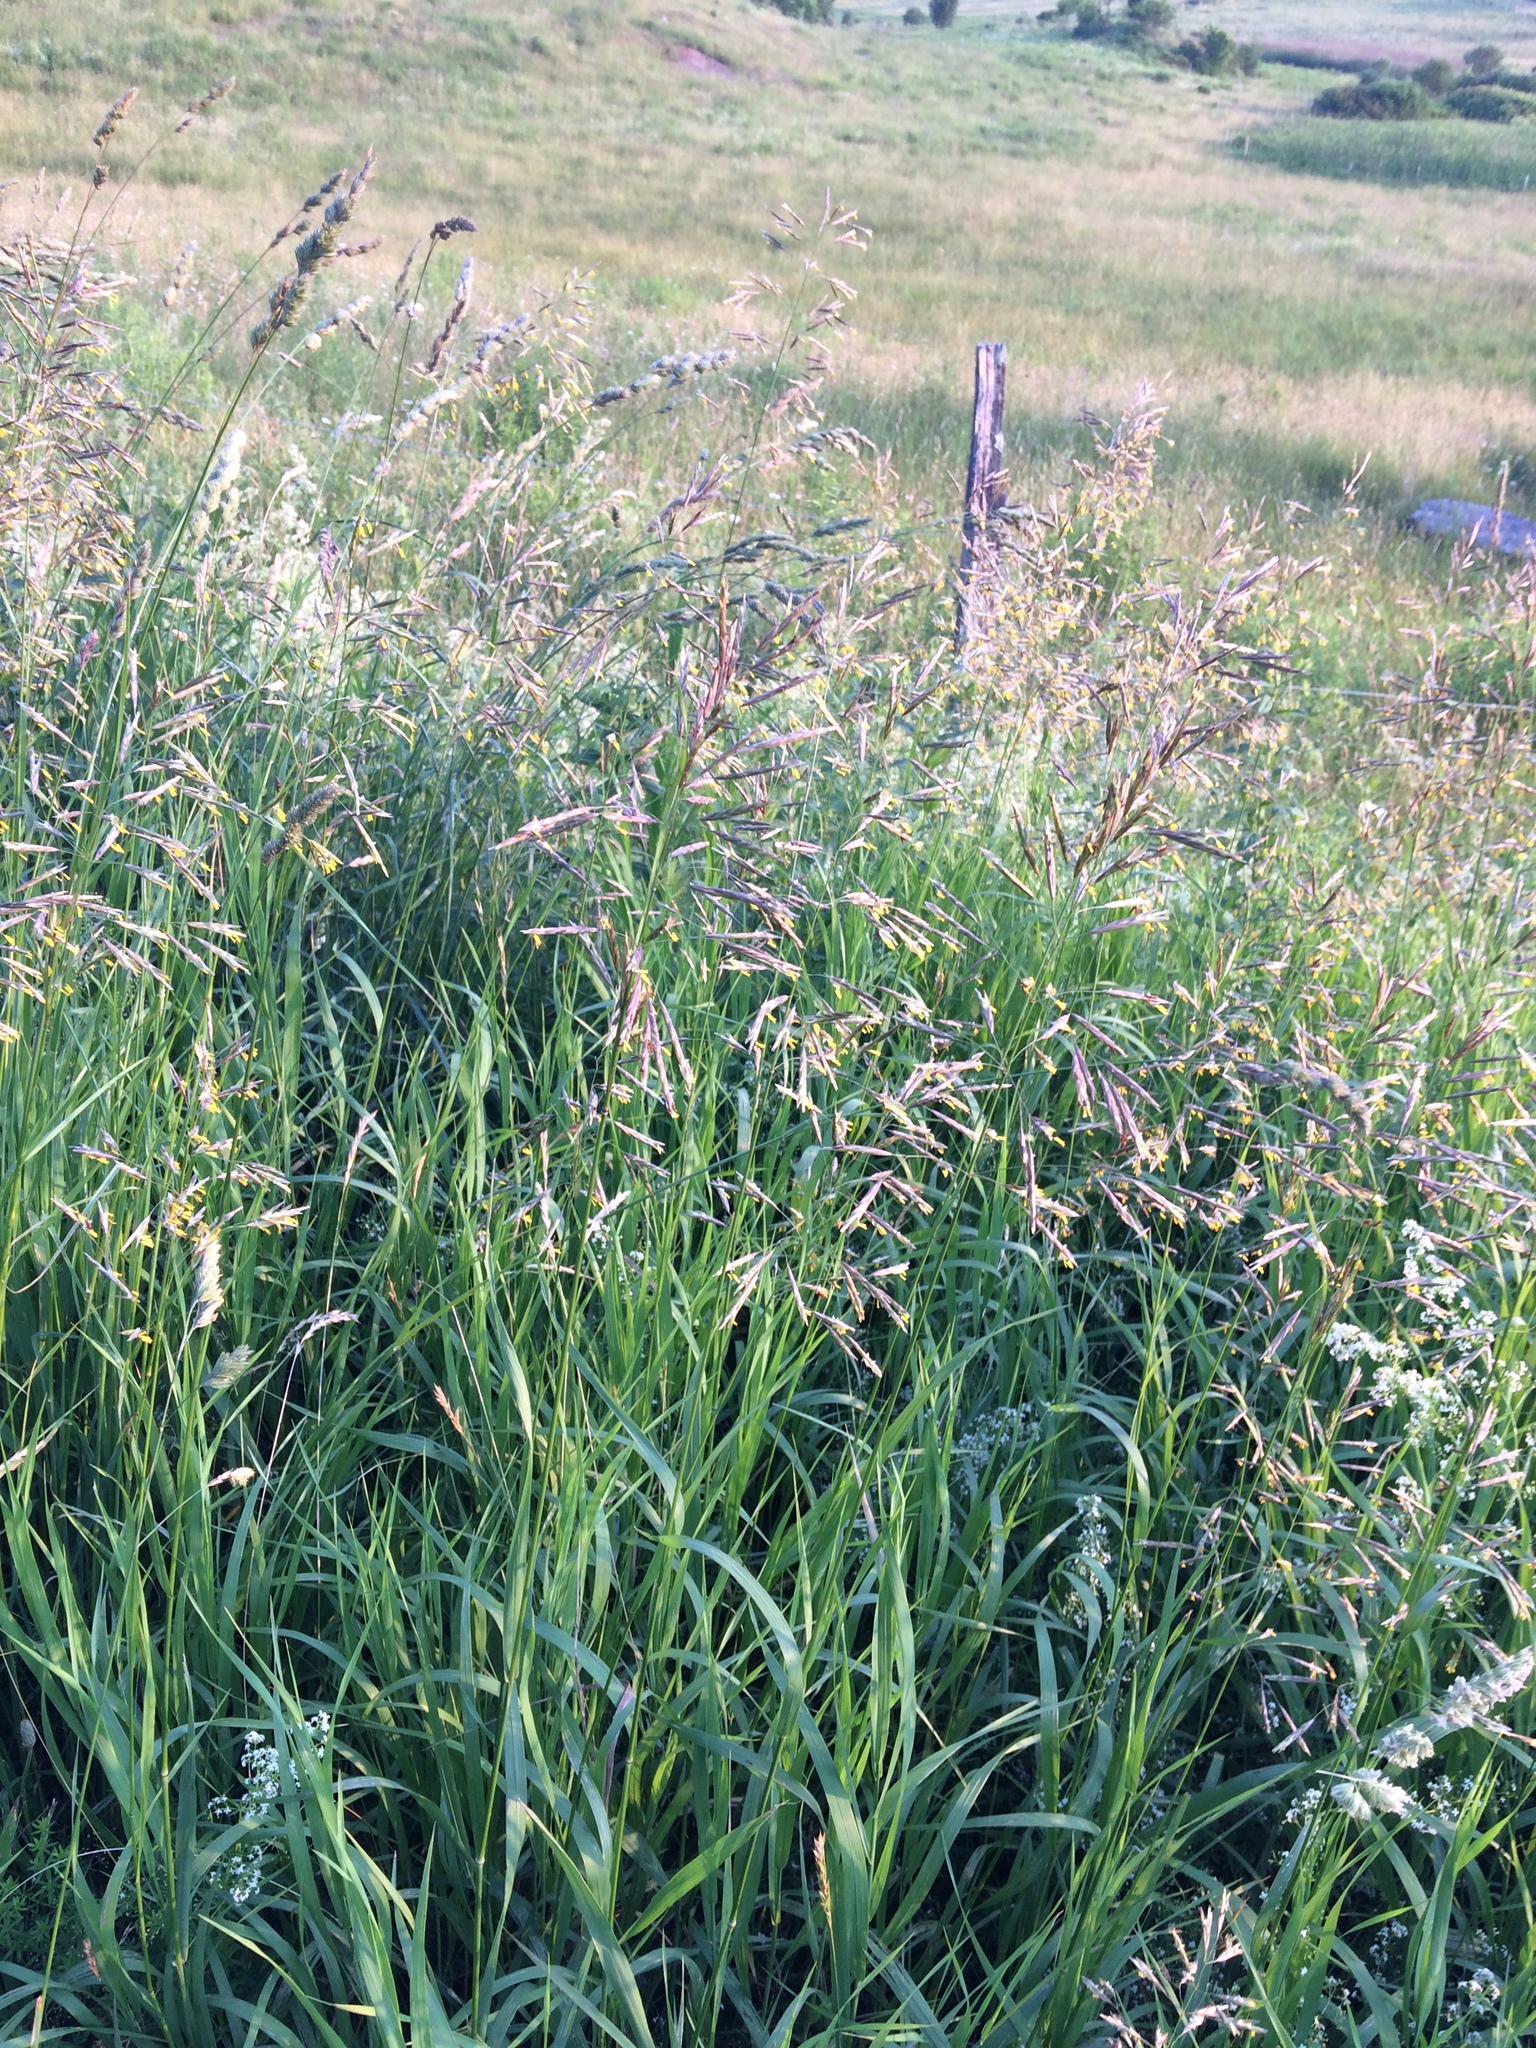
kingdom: Plantae
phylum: Tracheophyta
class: Liliopsida
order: Poales
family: Poaceae
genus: Bromus
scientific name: Bromus inermis
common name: Smooth brome
